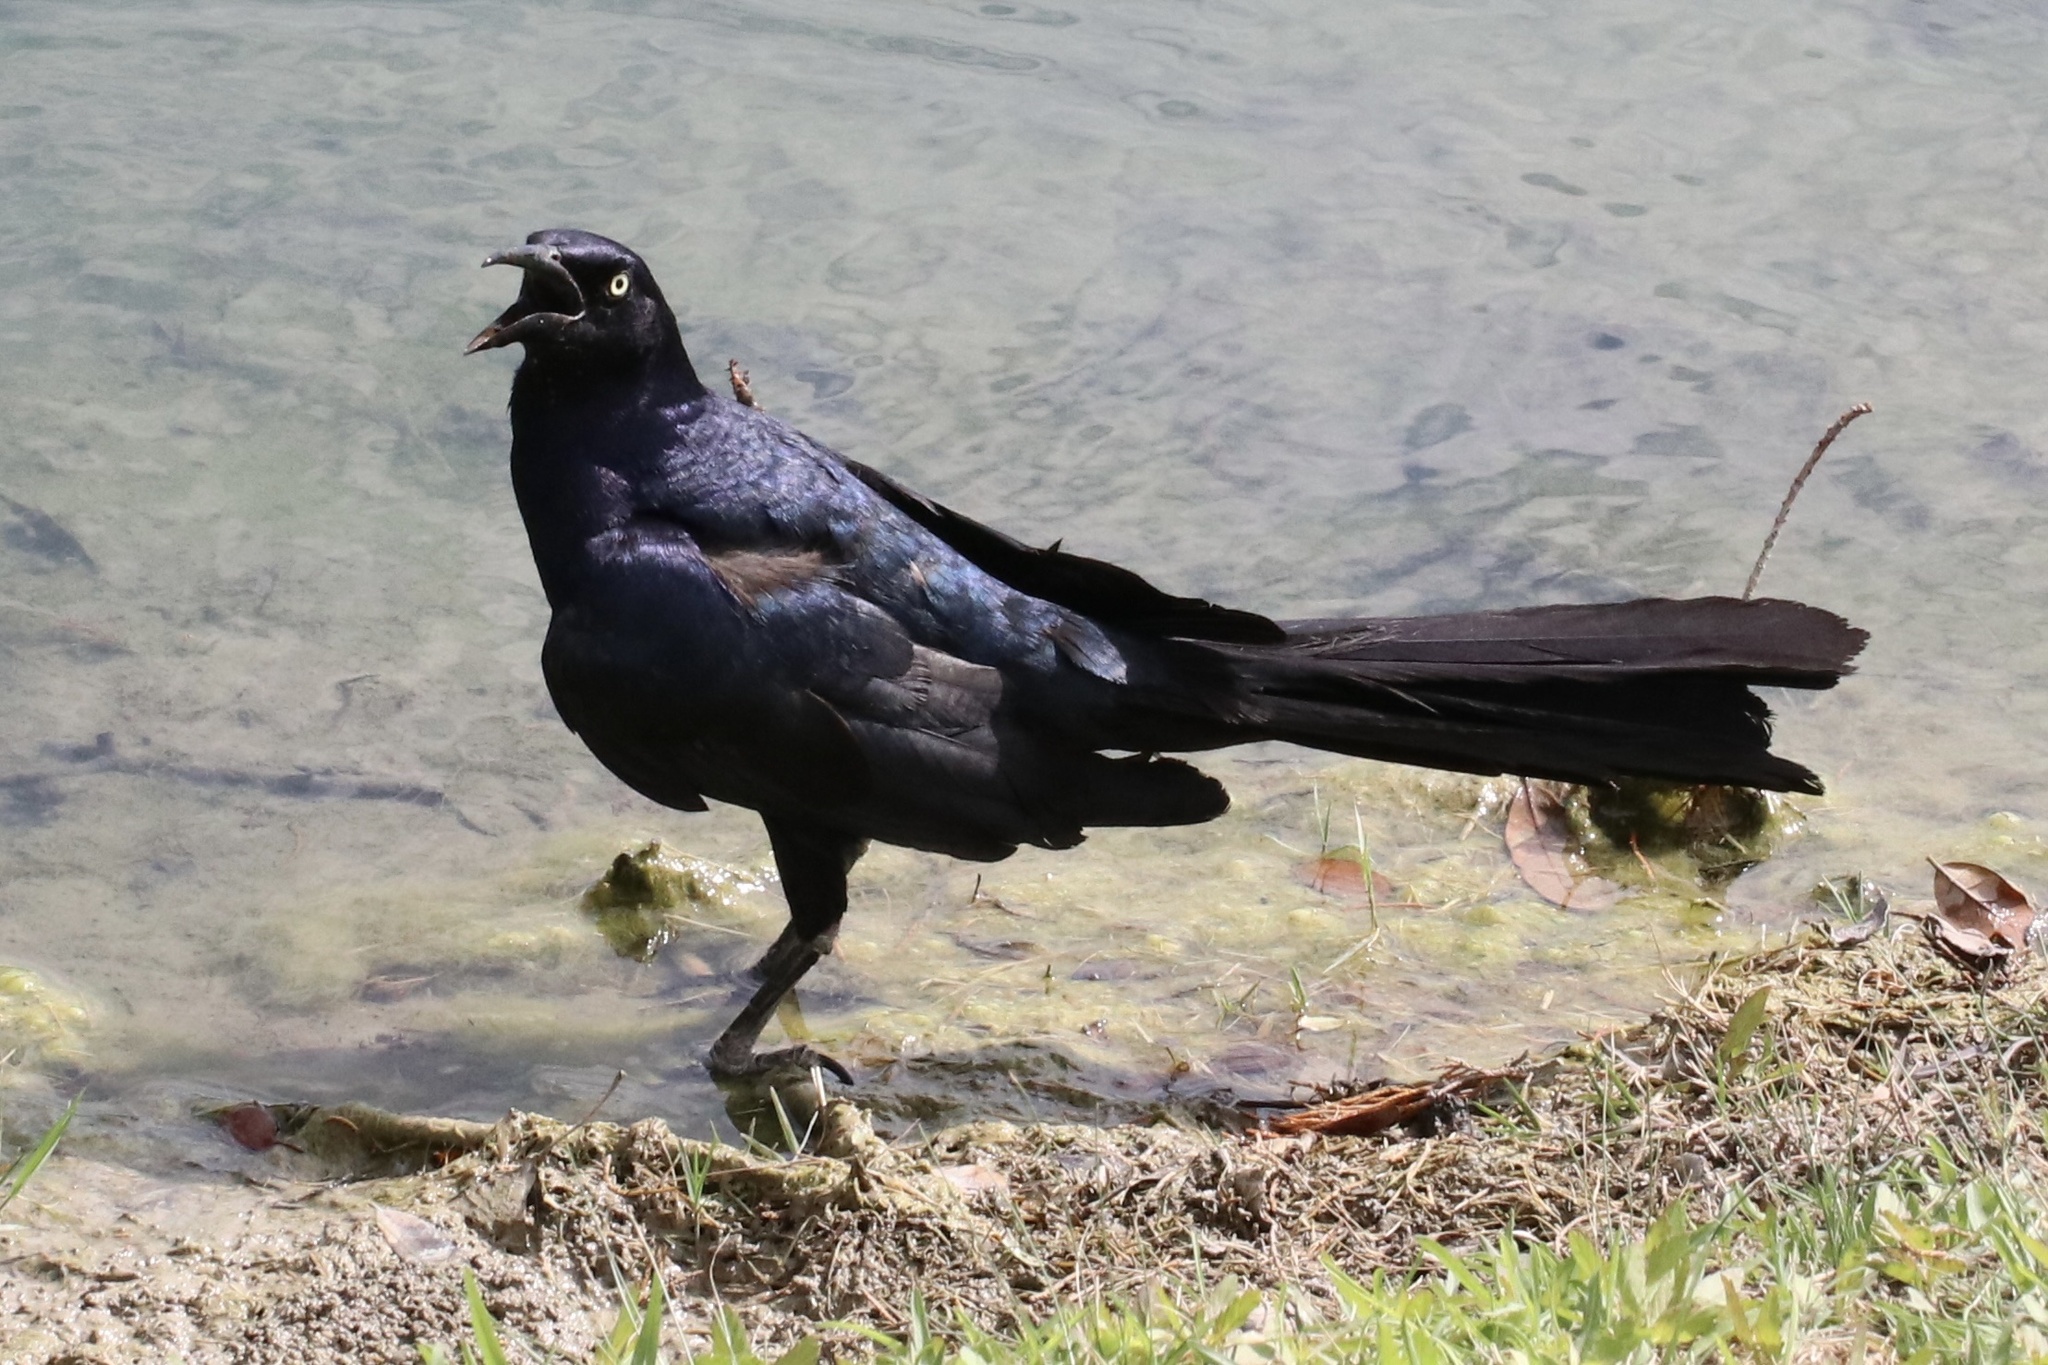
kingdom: Animalia
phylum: Chordata
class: Aves
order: Passeriformes
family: Icteridae
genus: Quiscalus
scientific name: Quiscalus mexicanus
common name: Great-tailed grackle
